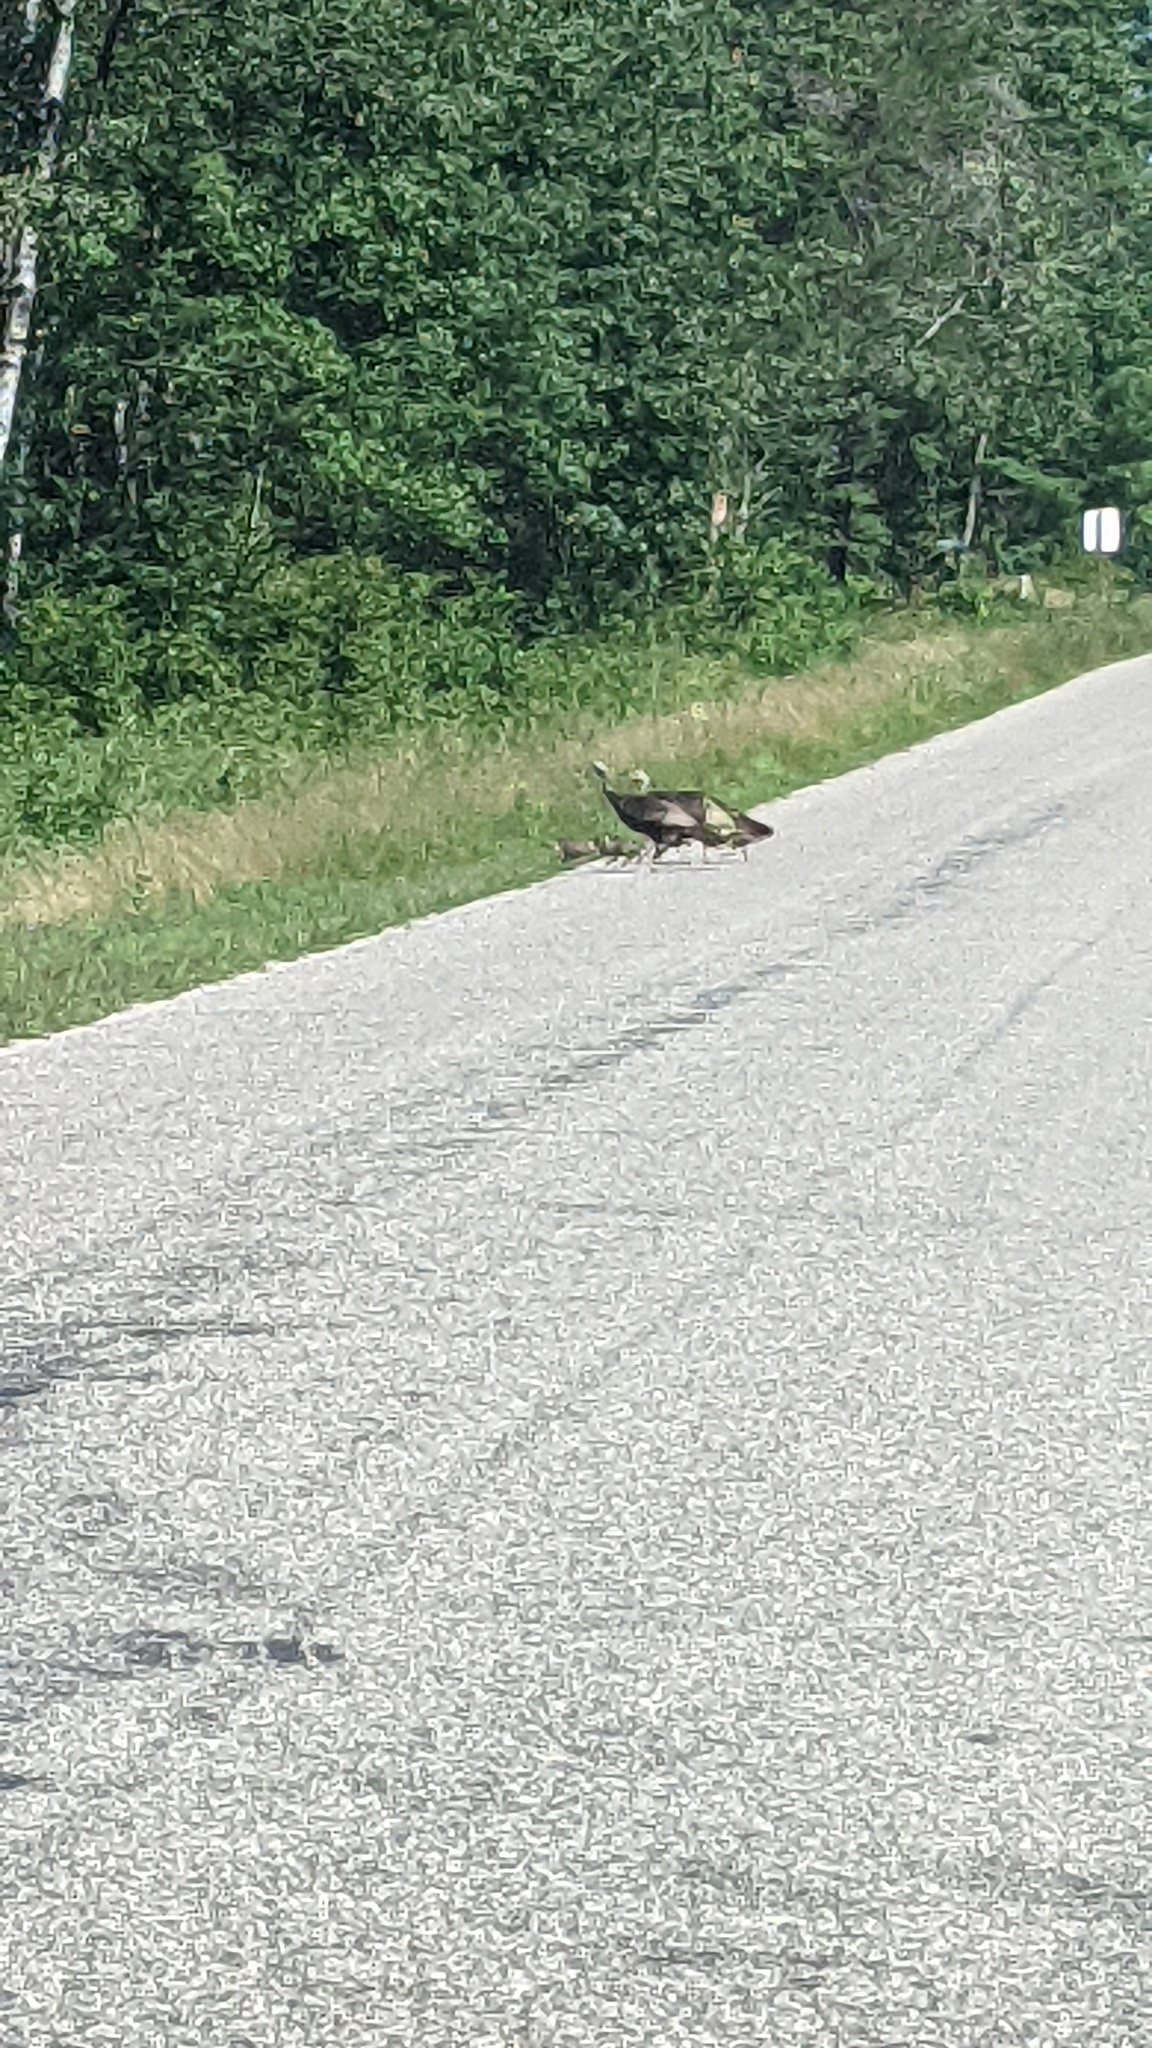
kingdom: Animalia
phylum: Chordata
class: Aves
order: Galliformes
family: Phasianidae
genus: Meleagris
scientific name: Meleagris gallopavo
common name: Wild turkey
